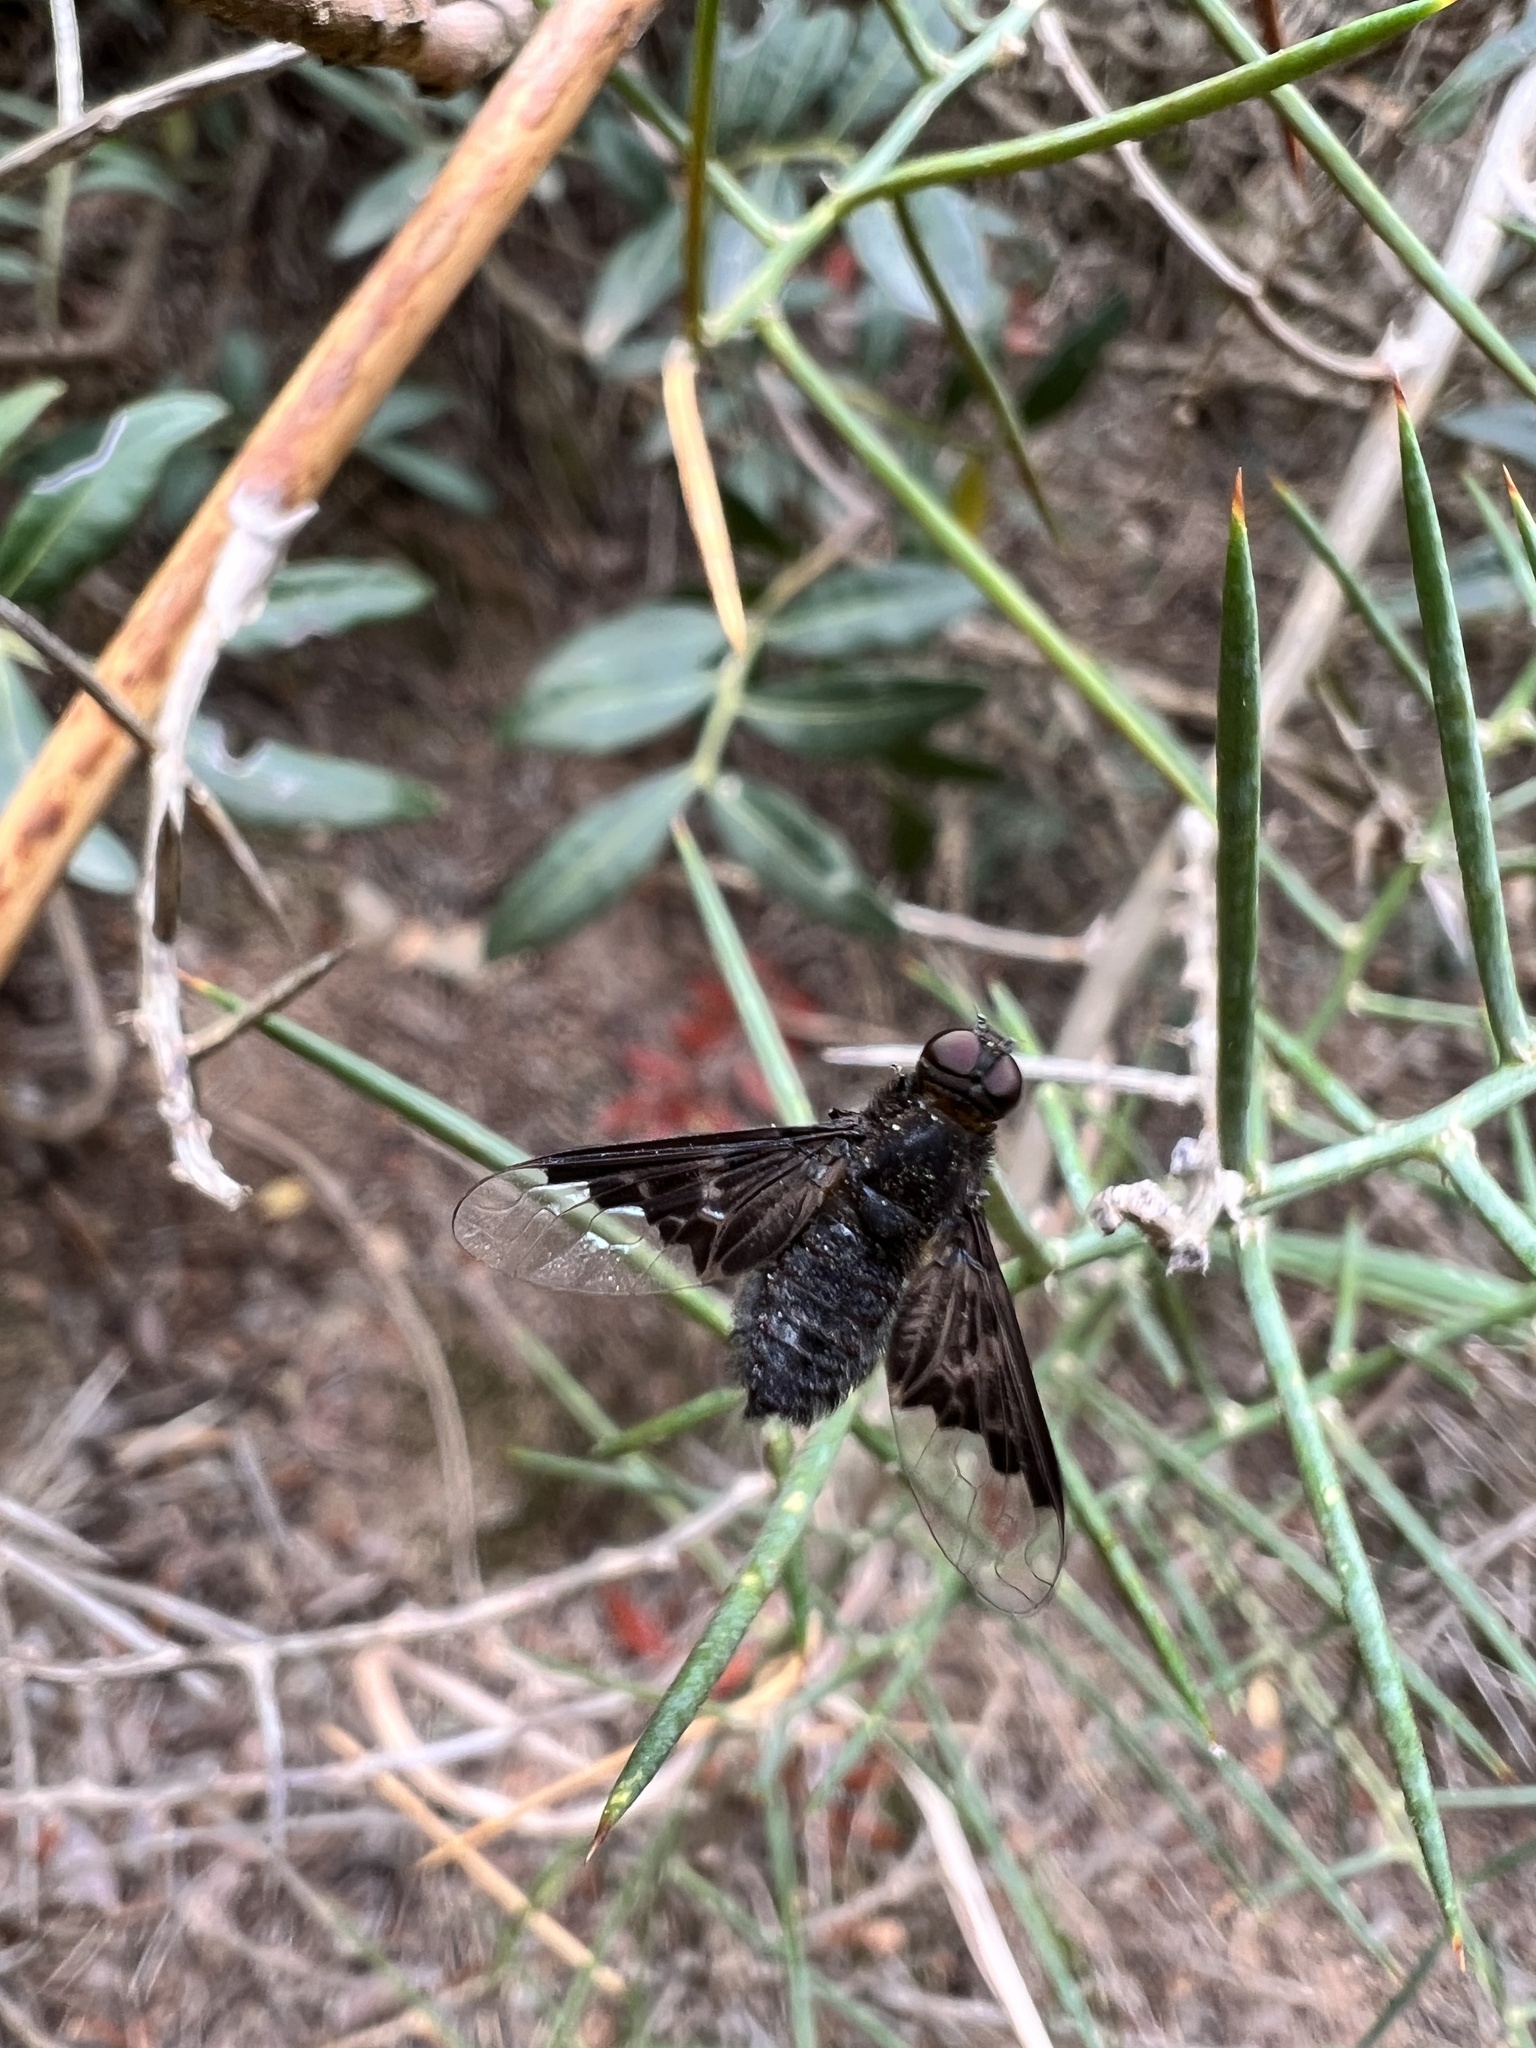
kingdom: Animalia
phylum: Arthropoda
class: Insecta
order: Diptera
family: Bombyliidae
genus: Hemipenthes
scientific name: Hemipenthes morio
